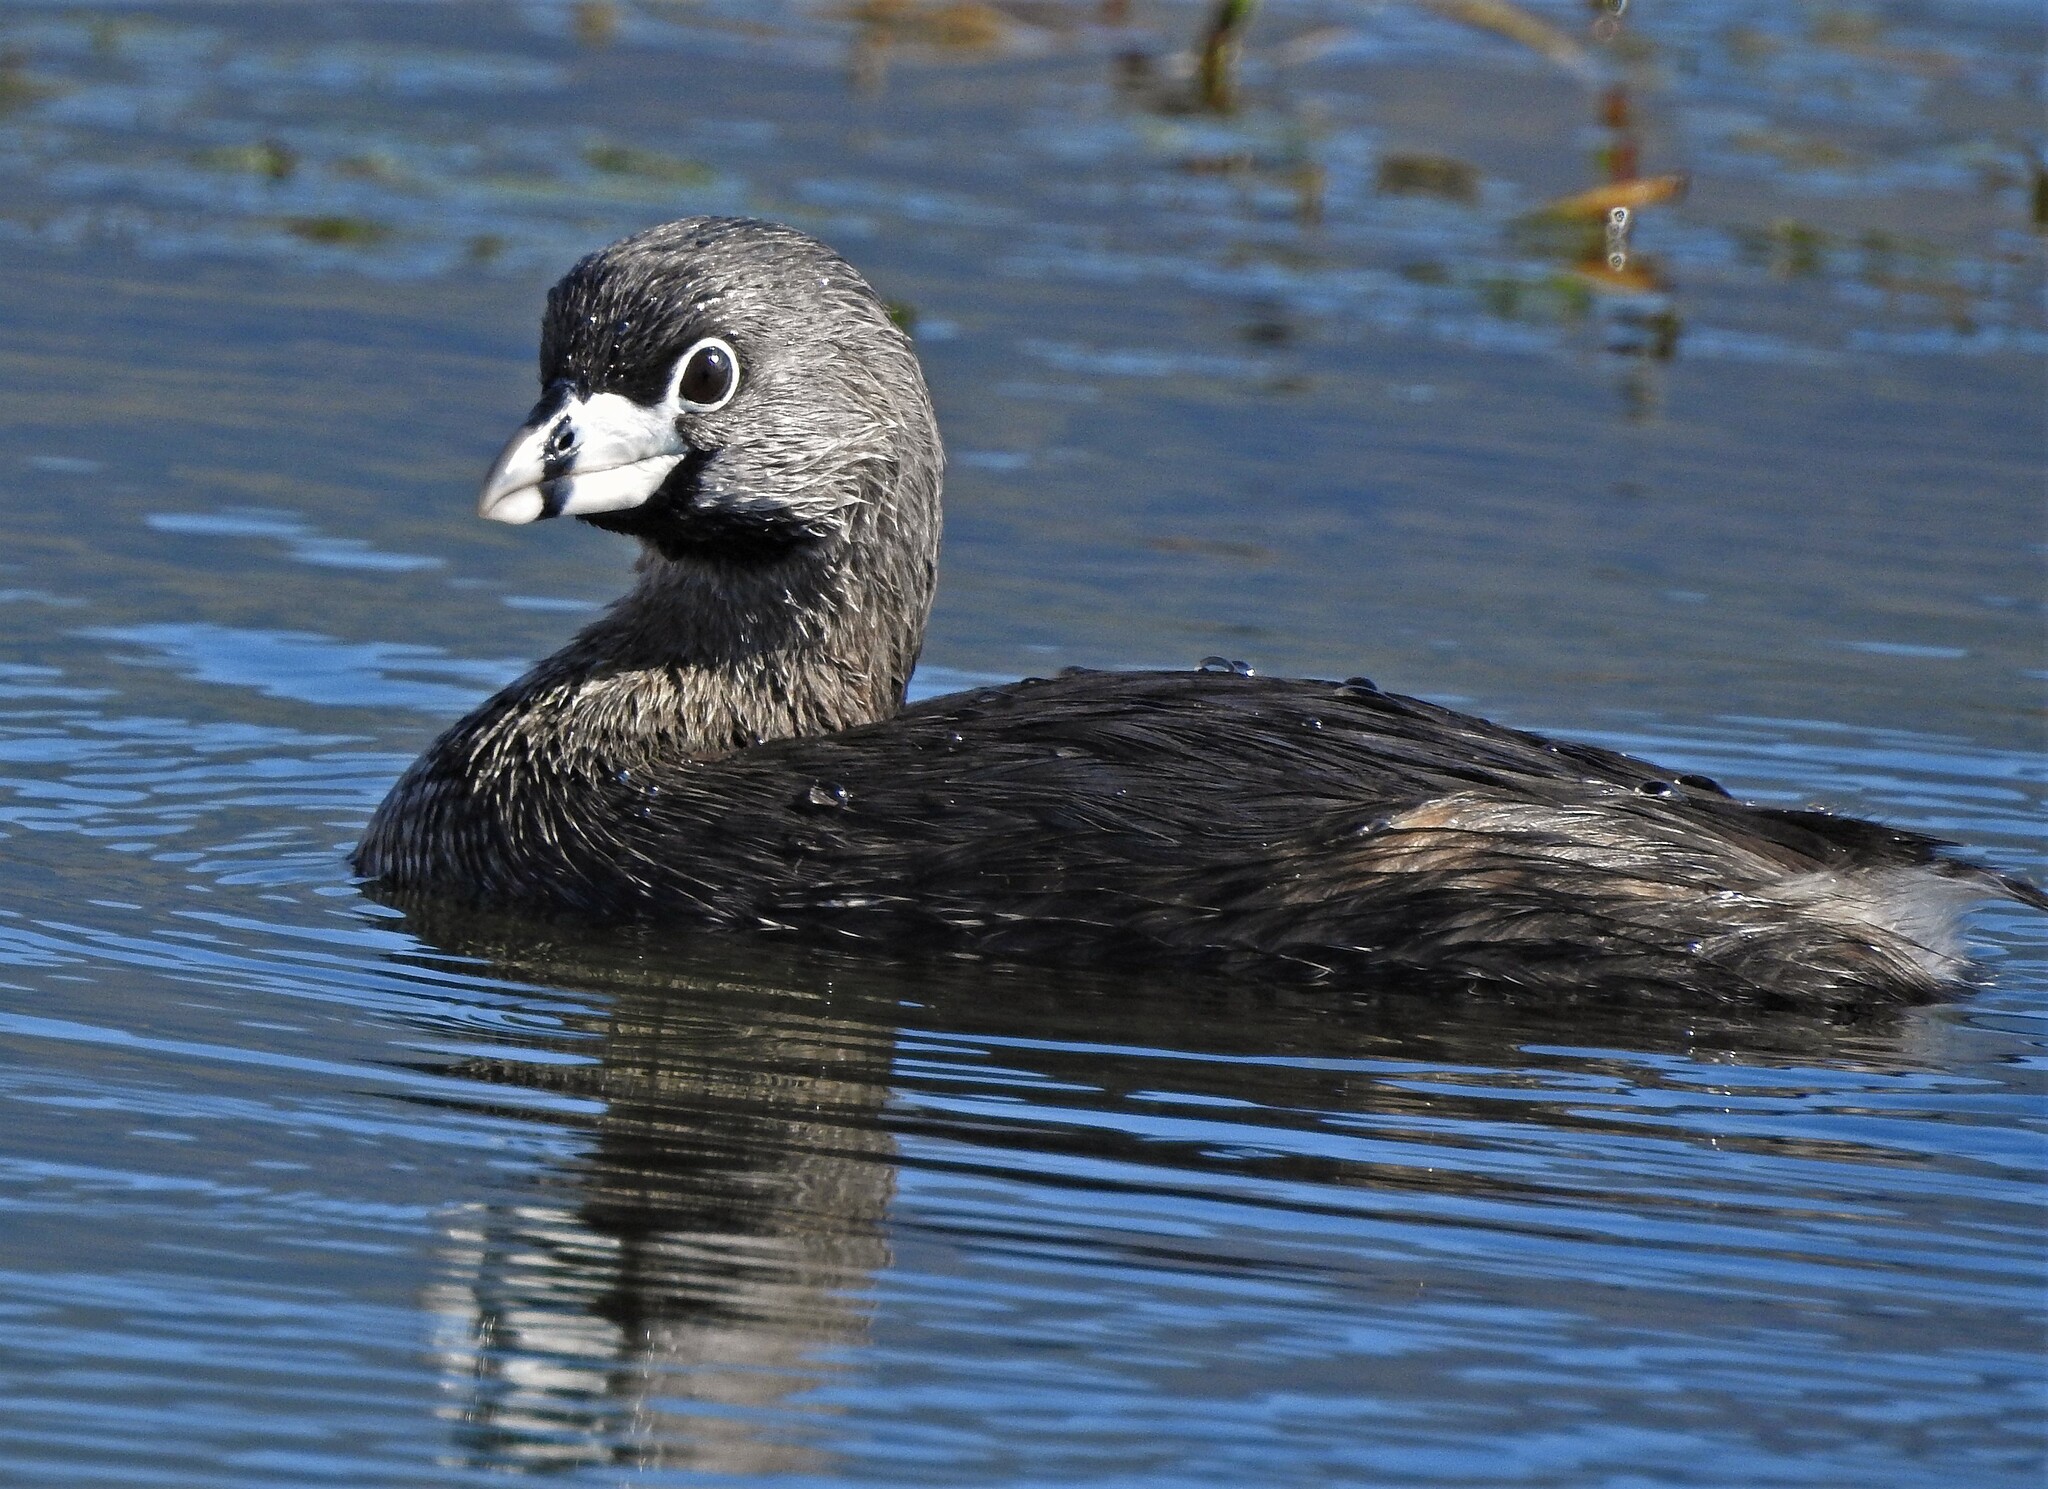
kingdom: Animalia
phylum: Chordata
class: Aves
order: Podicipediformes
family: Podicipedidae
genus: Podilymbus
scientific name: Podilymbus podiceps
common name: Pied-billed grebe
